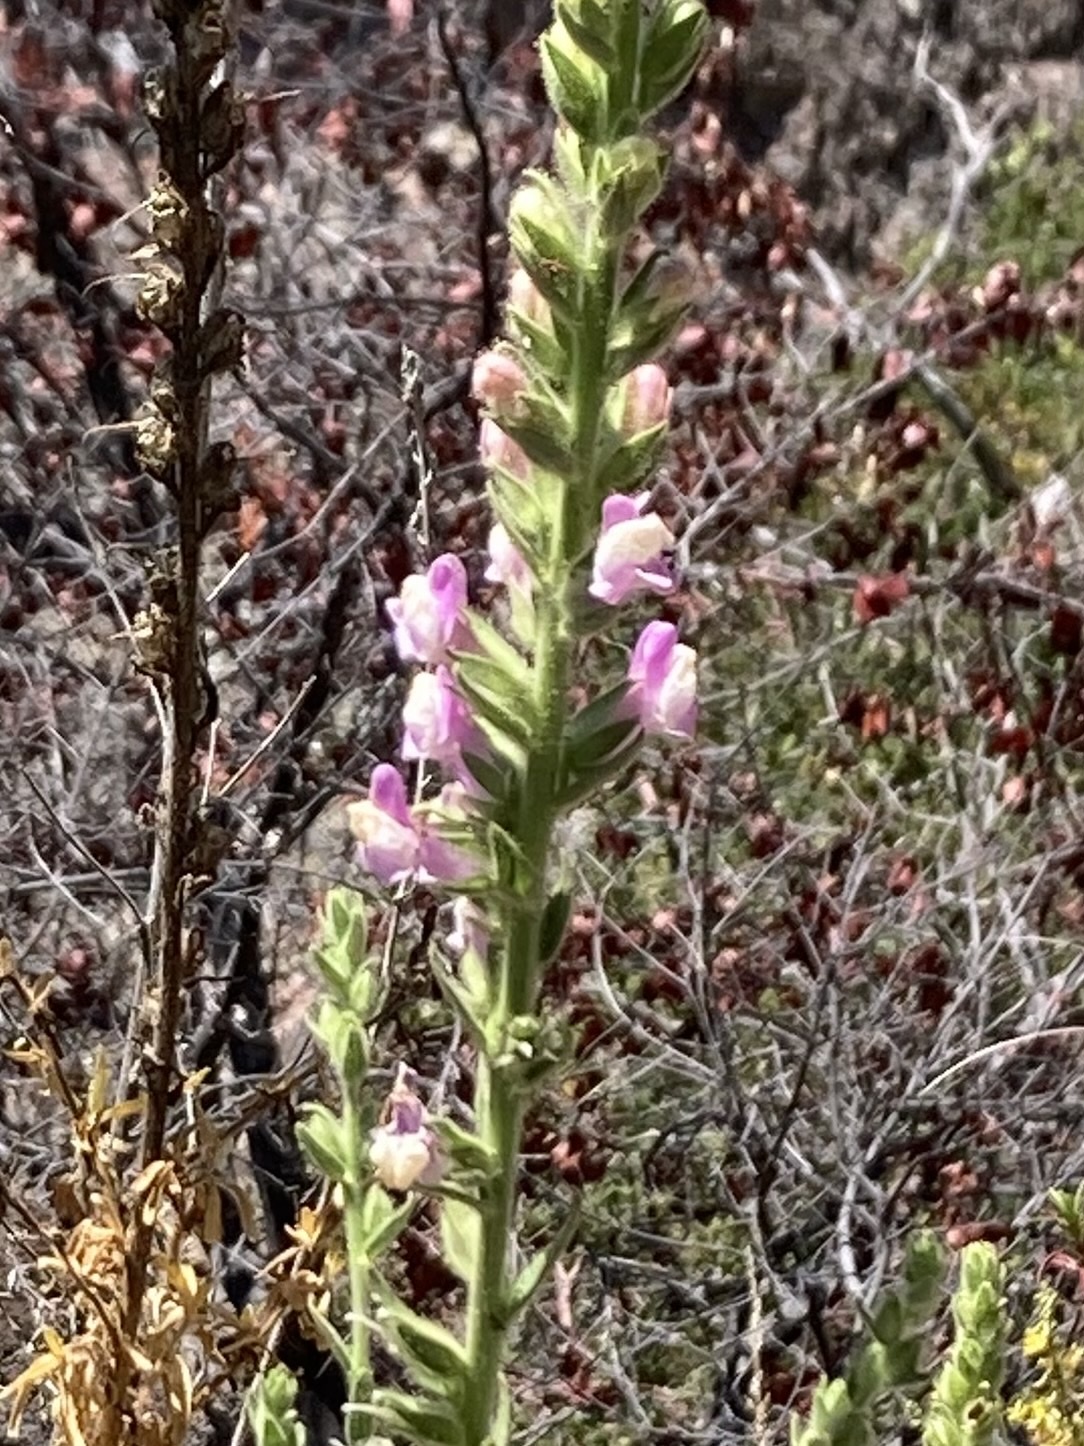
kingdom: Plantae
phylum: Tracheophyta
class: Magnoliopsida
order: Lamiales
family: Plantaginaceae
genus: Sairocarpus
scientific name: Sairocarpus multiflorus
